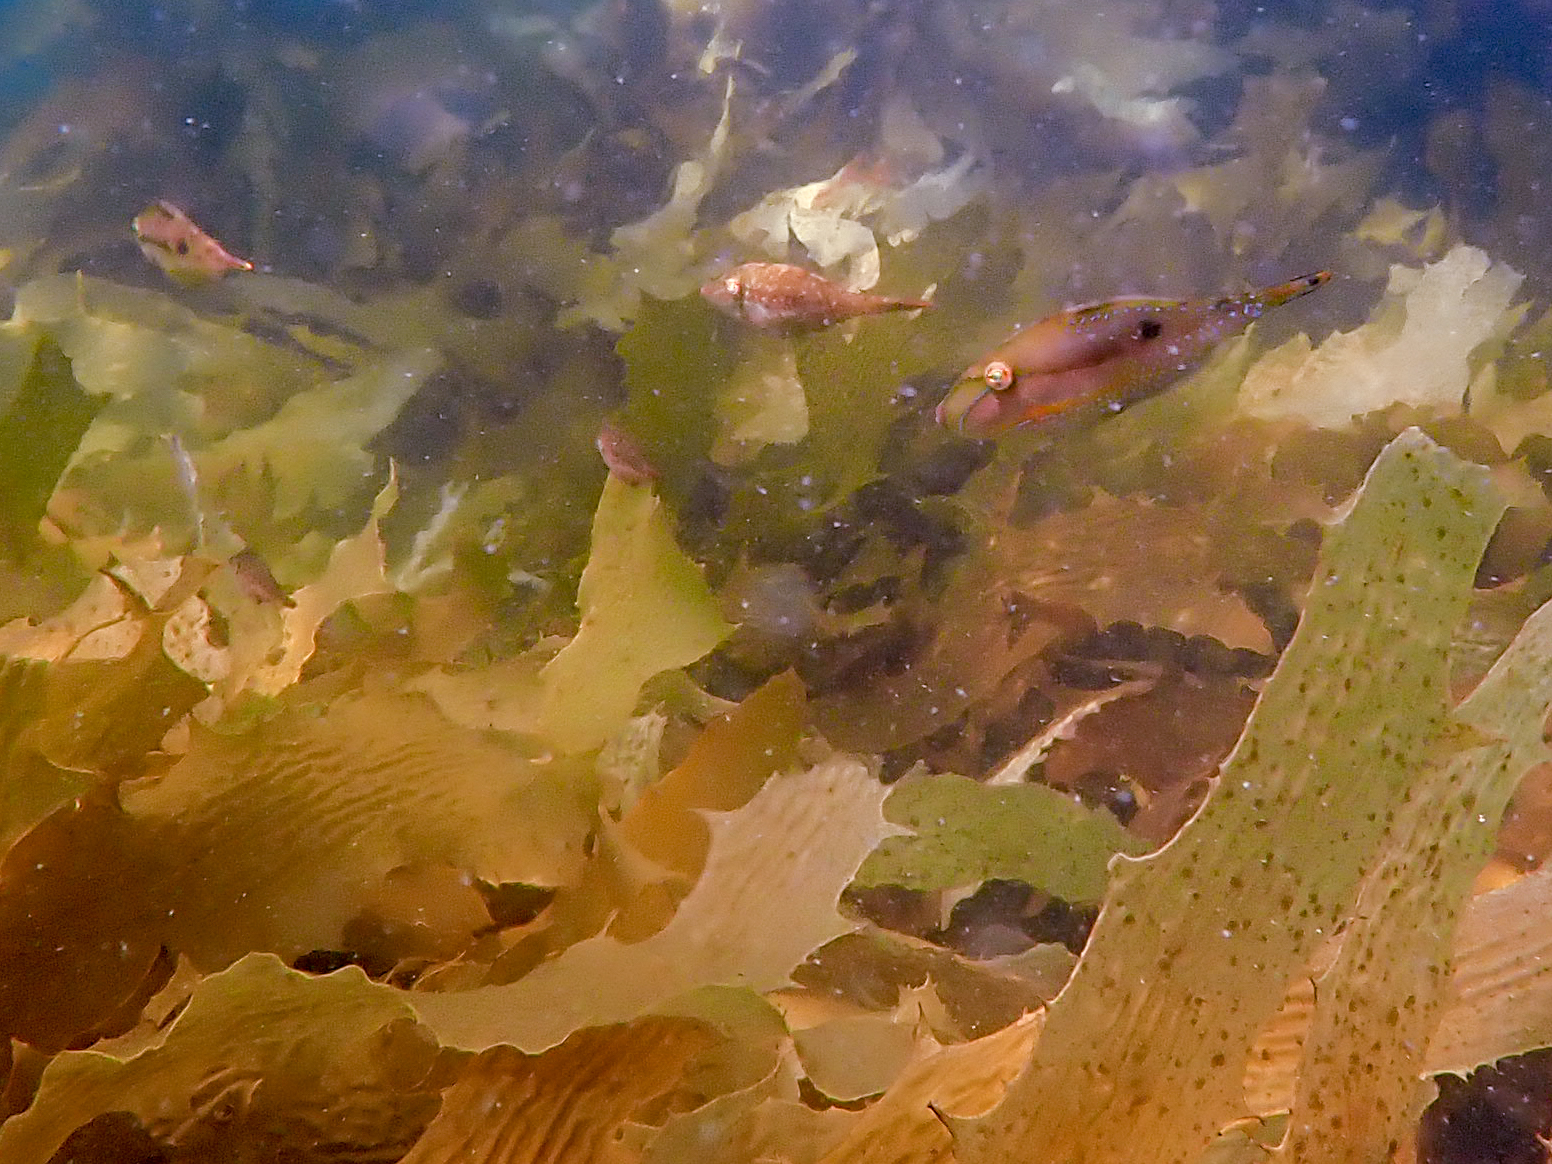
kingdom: Animalia
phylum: Chordata
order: Tetraodontiformes
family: Monacanthidae
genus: Acanthaluteres
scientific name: Acanthaluteres spilomelanurus
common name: Bridled leatherjacket
